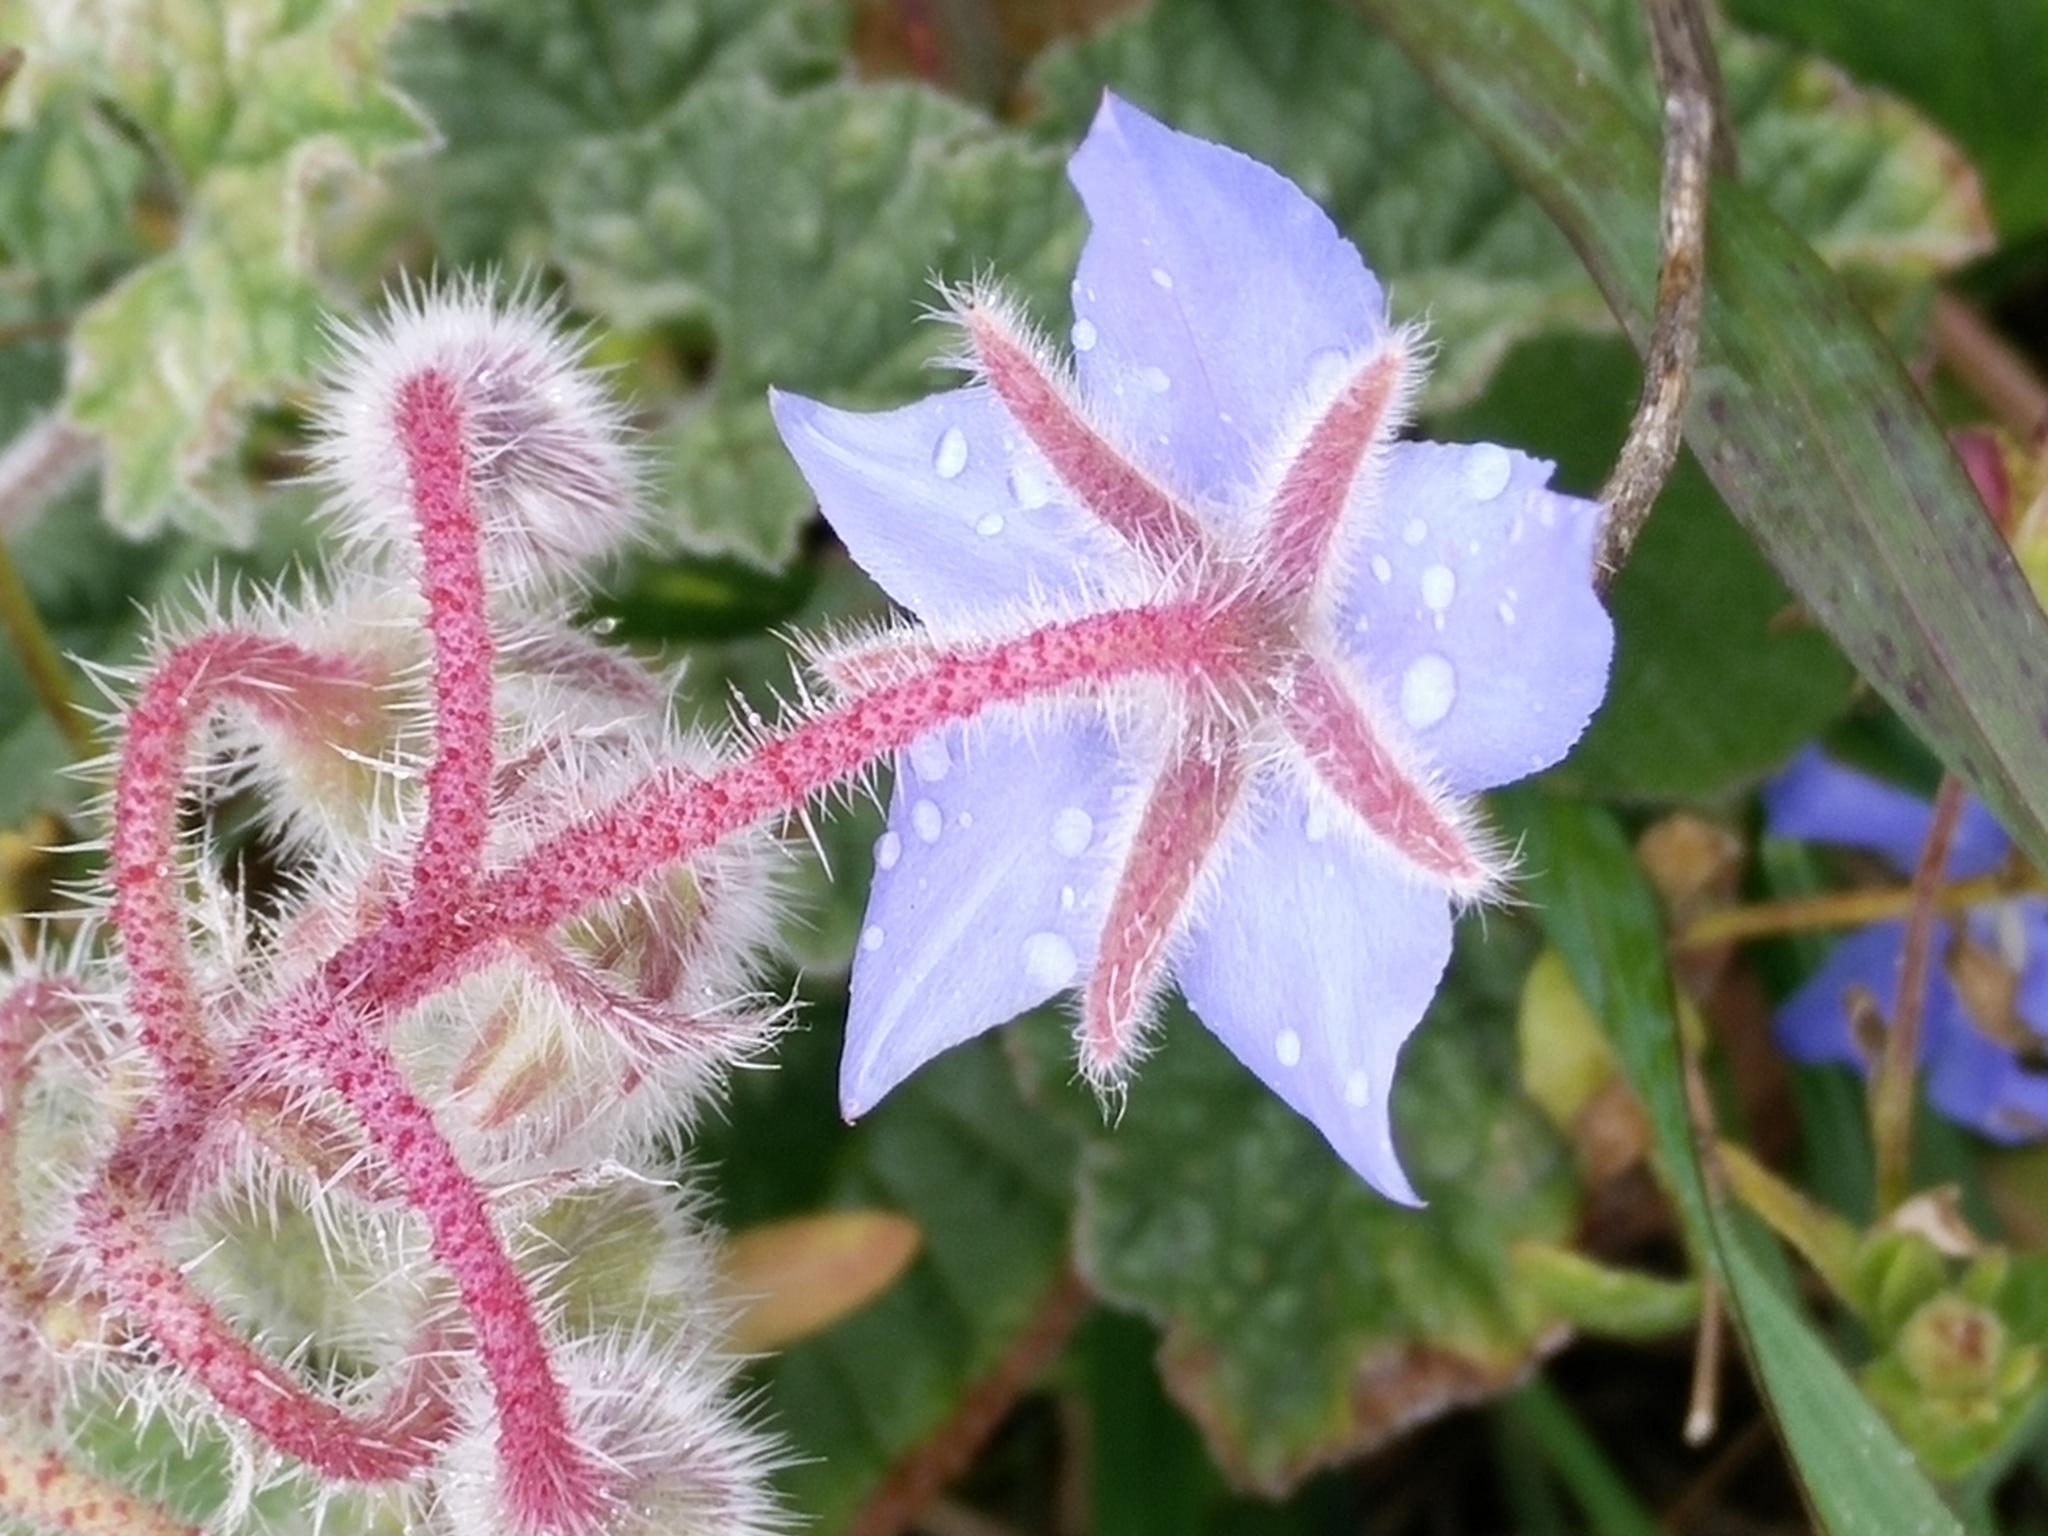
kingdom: Plantae
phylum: Tracheophyta
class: Magnoliopsida
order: Boraginales
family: Boraginaceae
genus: Borago
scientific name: Borago officinalis
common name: Borage
